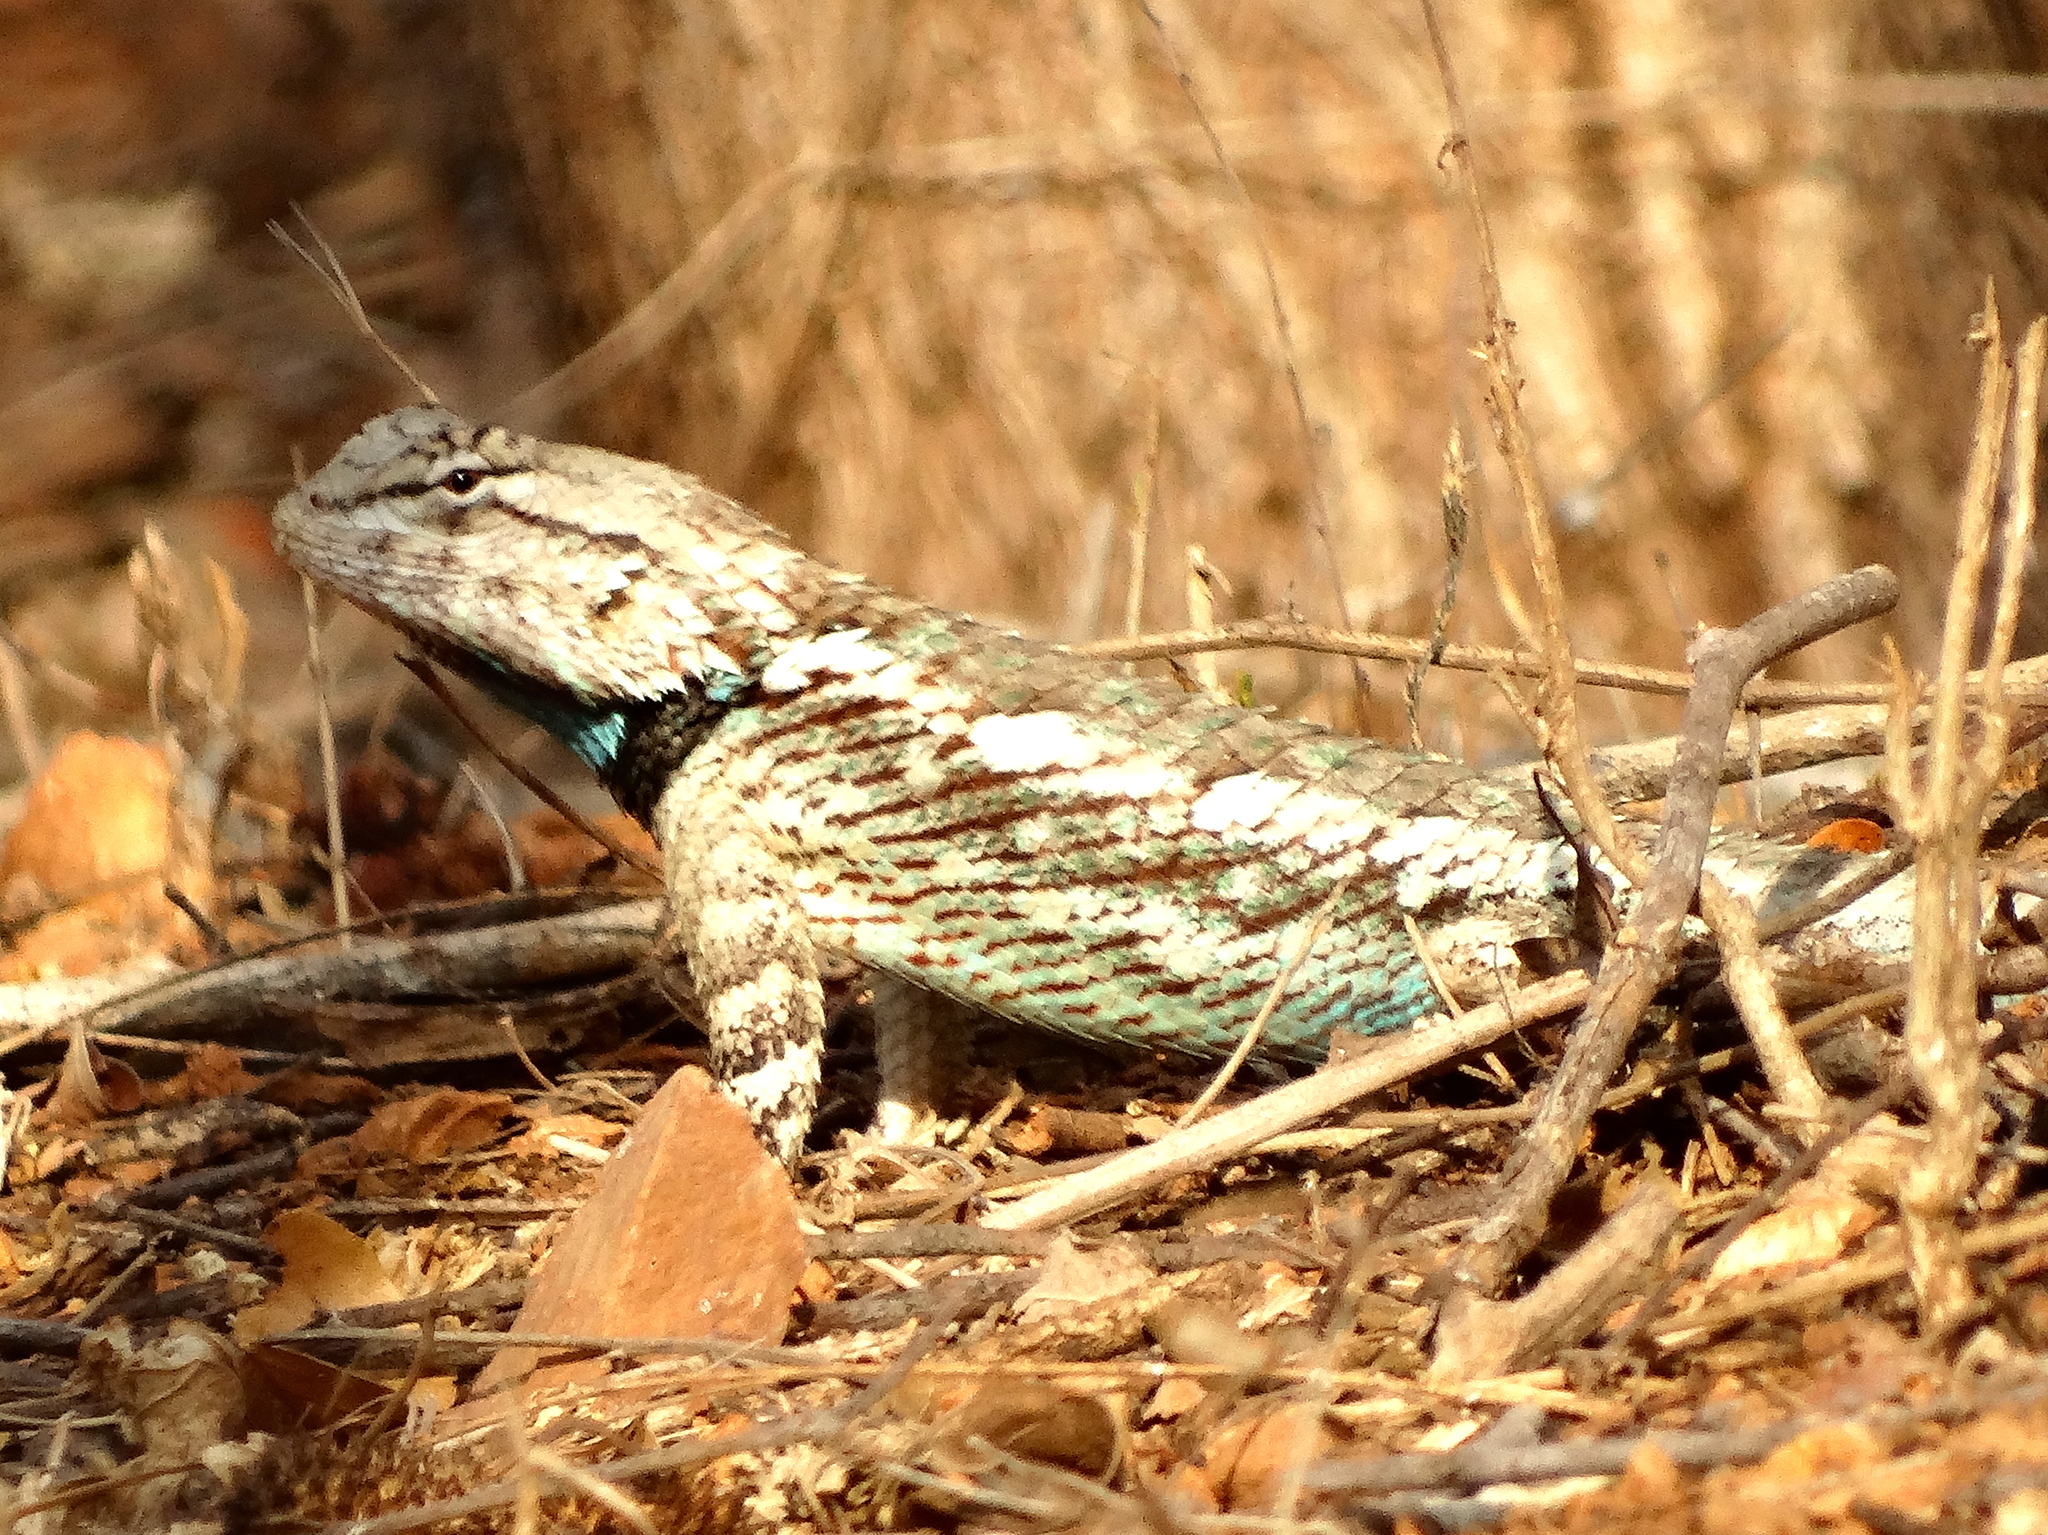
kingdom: Animalia
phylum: Chordata
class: Squamata
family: Phrynosomatidae
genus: Sceloporus
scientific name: Sceloporus clarkii
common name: Clark's spiny lizard
